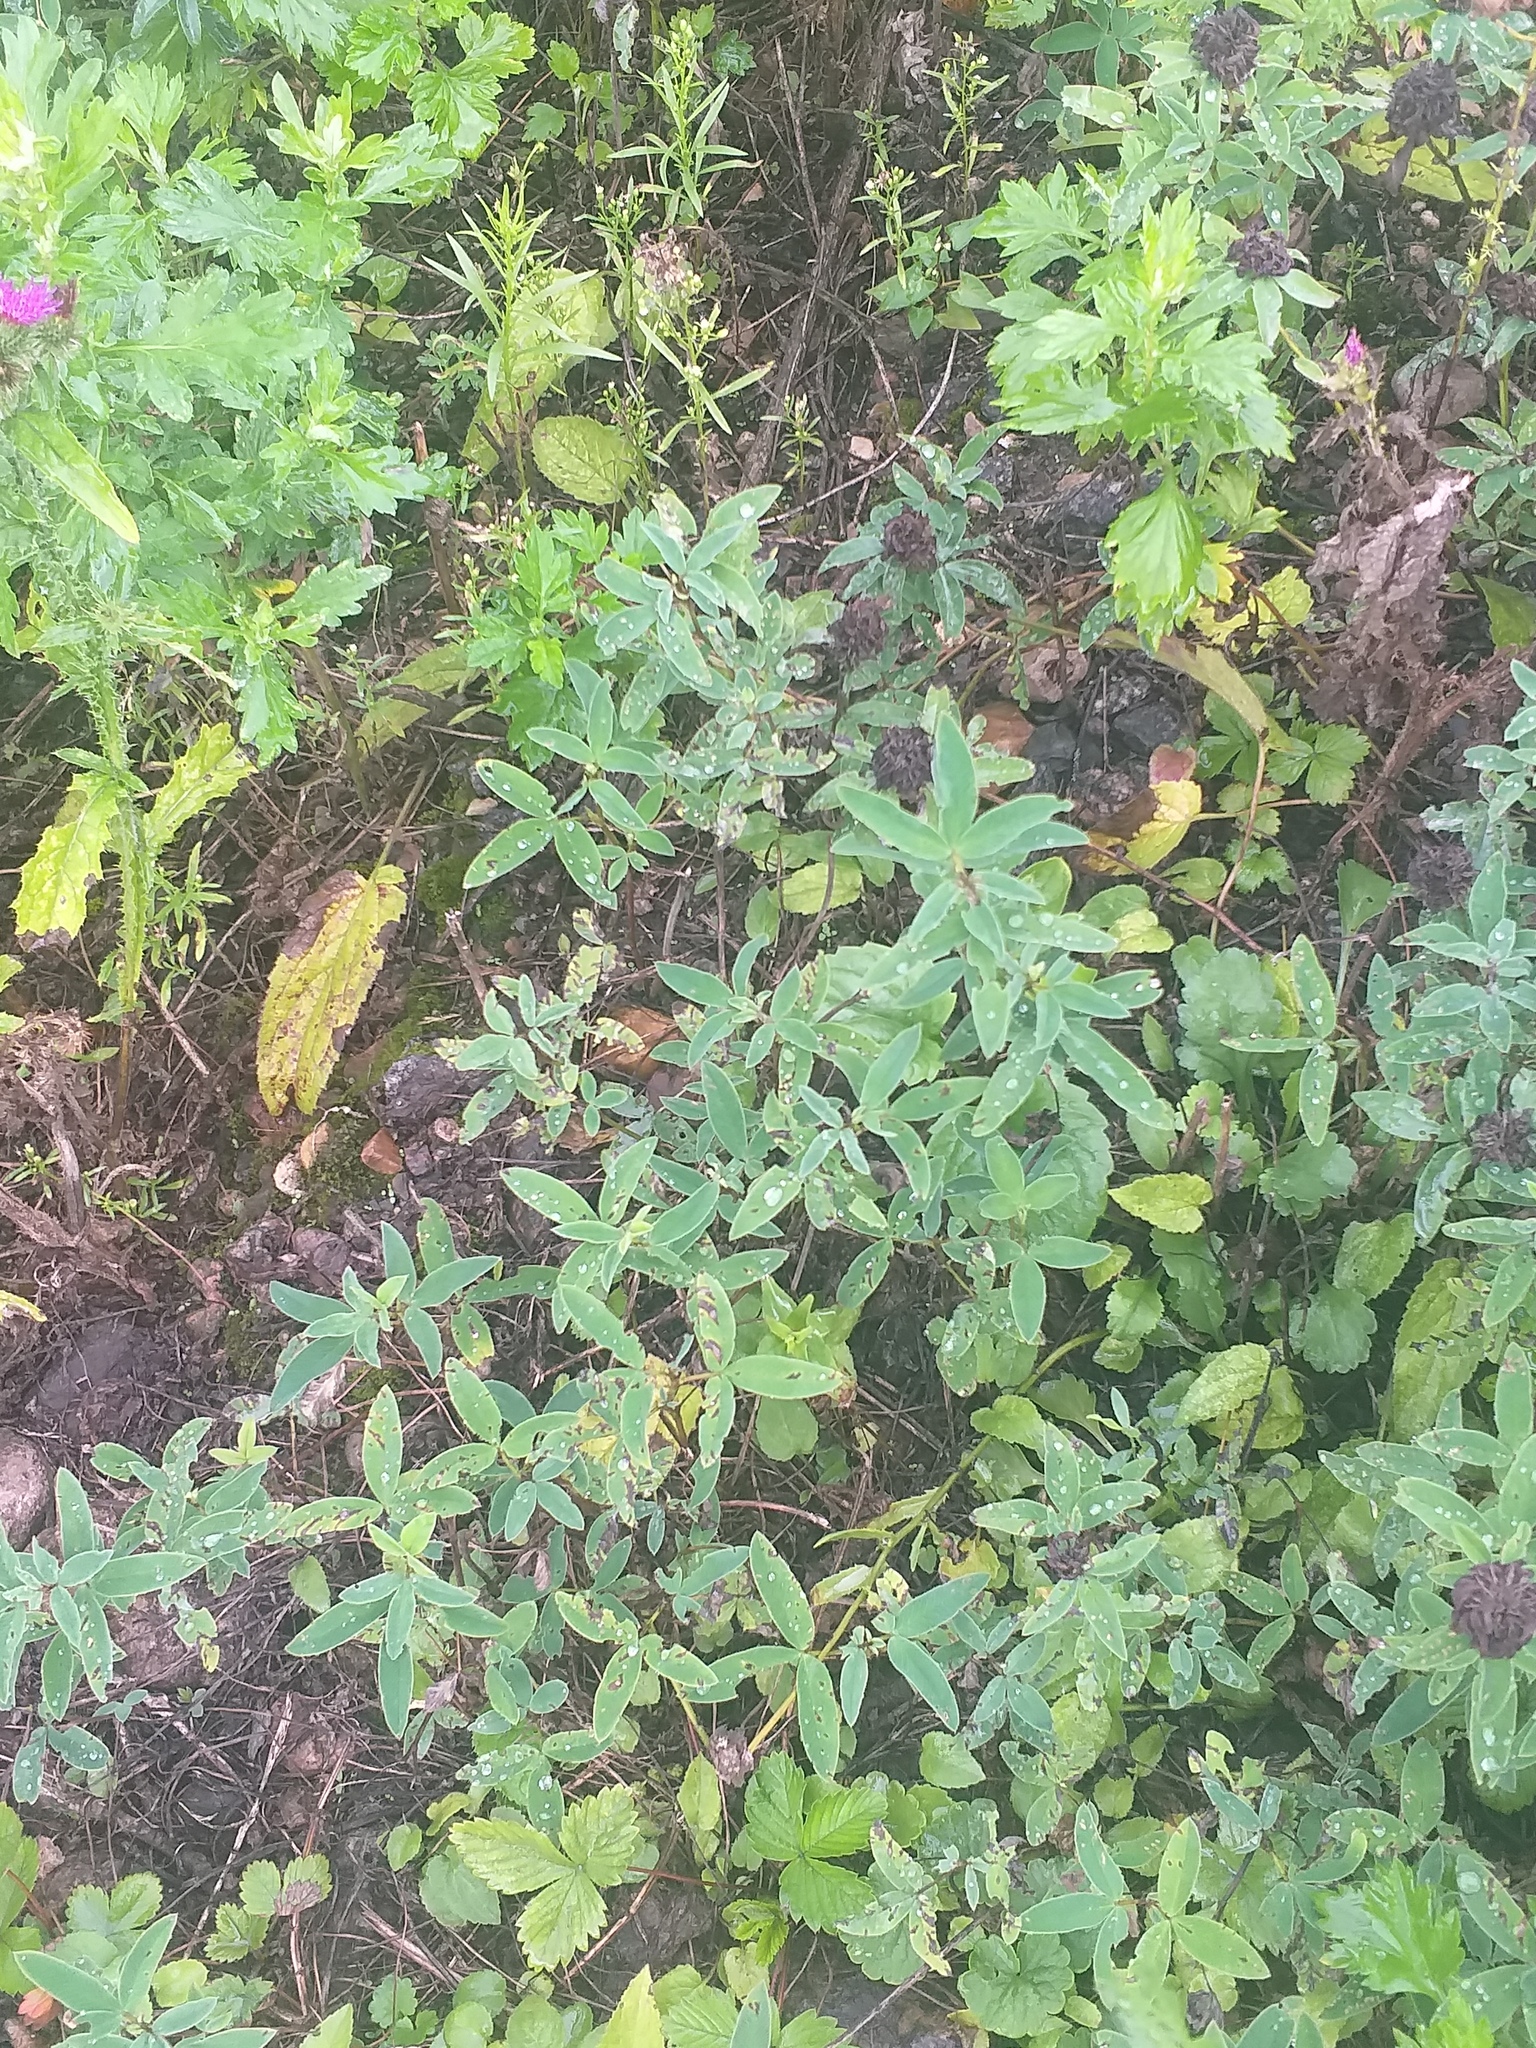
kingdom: Plantae
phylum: Tracheophyta
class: Magnoliopsida
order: Fabales
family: Fabaceae
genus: Trifolium
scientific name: Trifolium medium
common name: Zigzag clover
